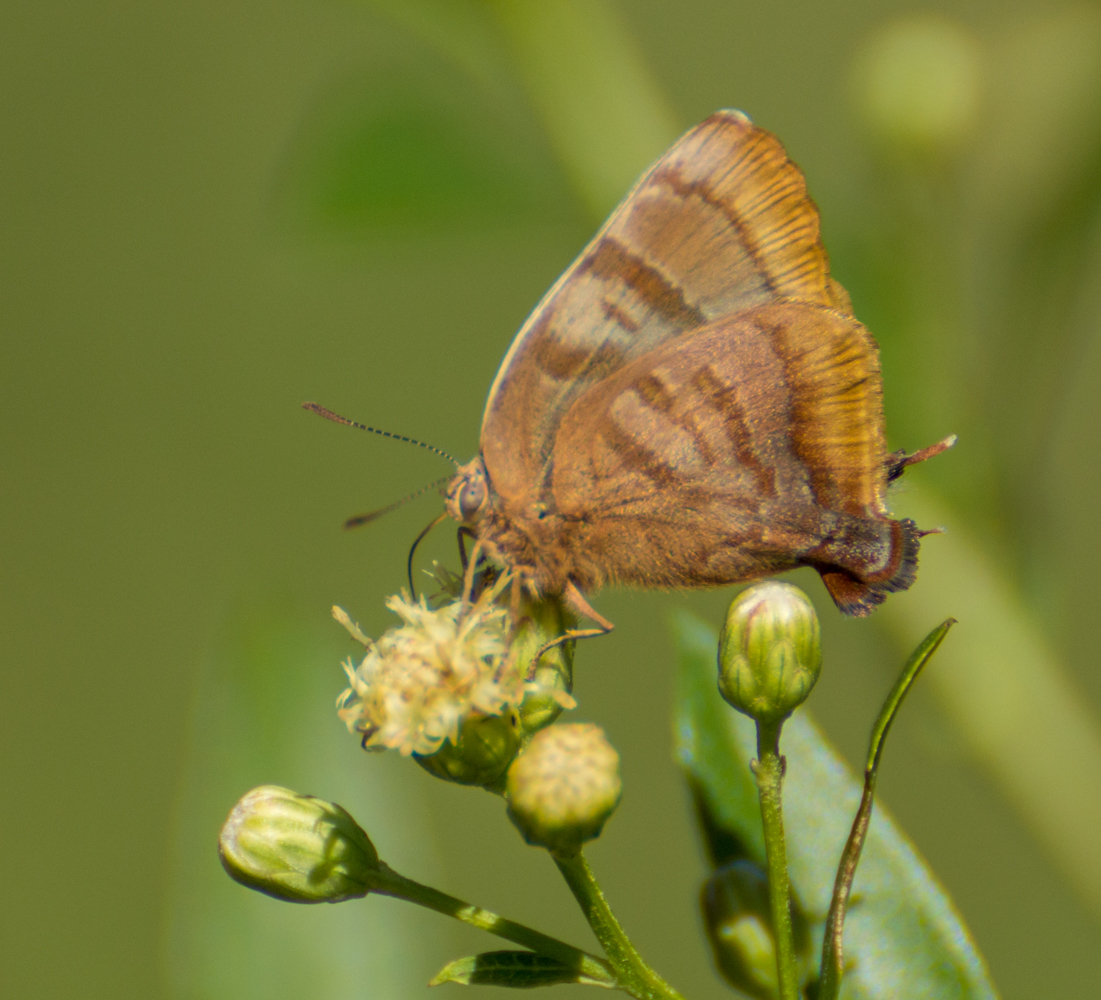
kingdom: Animalia
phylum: Arthropoda
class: Insecta
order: Lepidoptera
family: Lycaenidae
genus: Thecla
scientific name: Thecla marius
